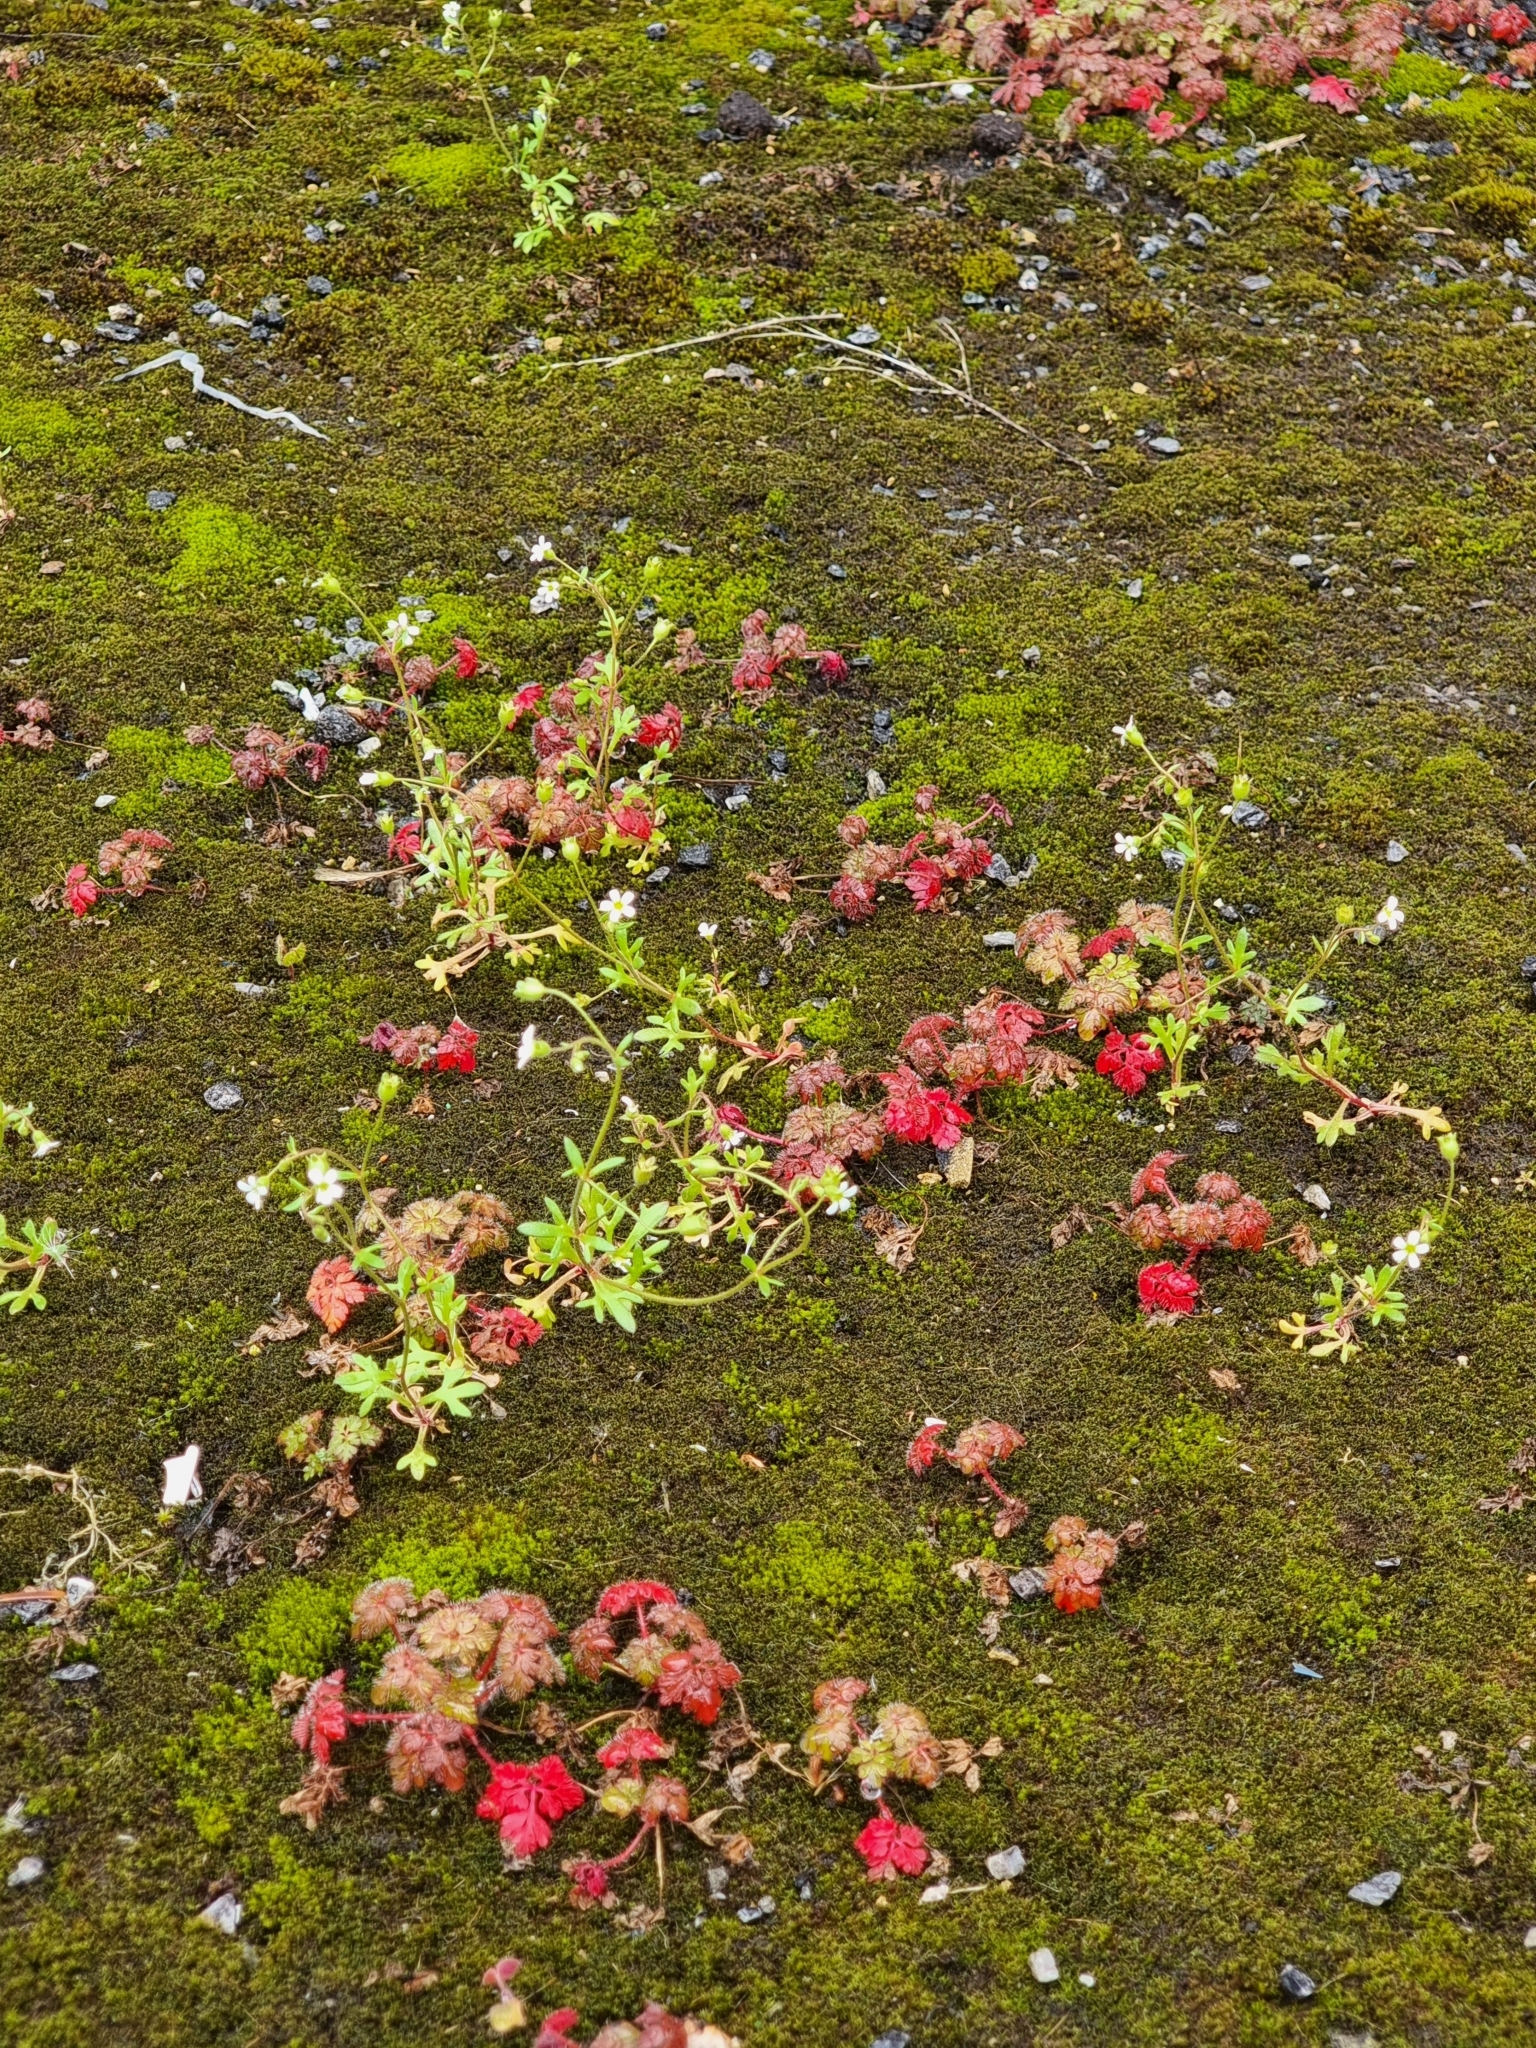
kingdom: Plantae
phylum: Tracheophyta
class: Magnoliopsida
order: Saxifragales
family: Saxifragaceae
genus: Saxifraga
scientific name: Saxifraga tridactylites
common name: Rue-leaved saxifrage
